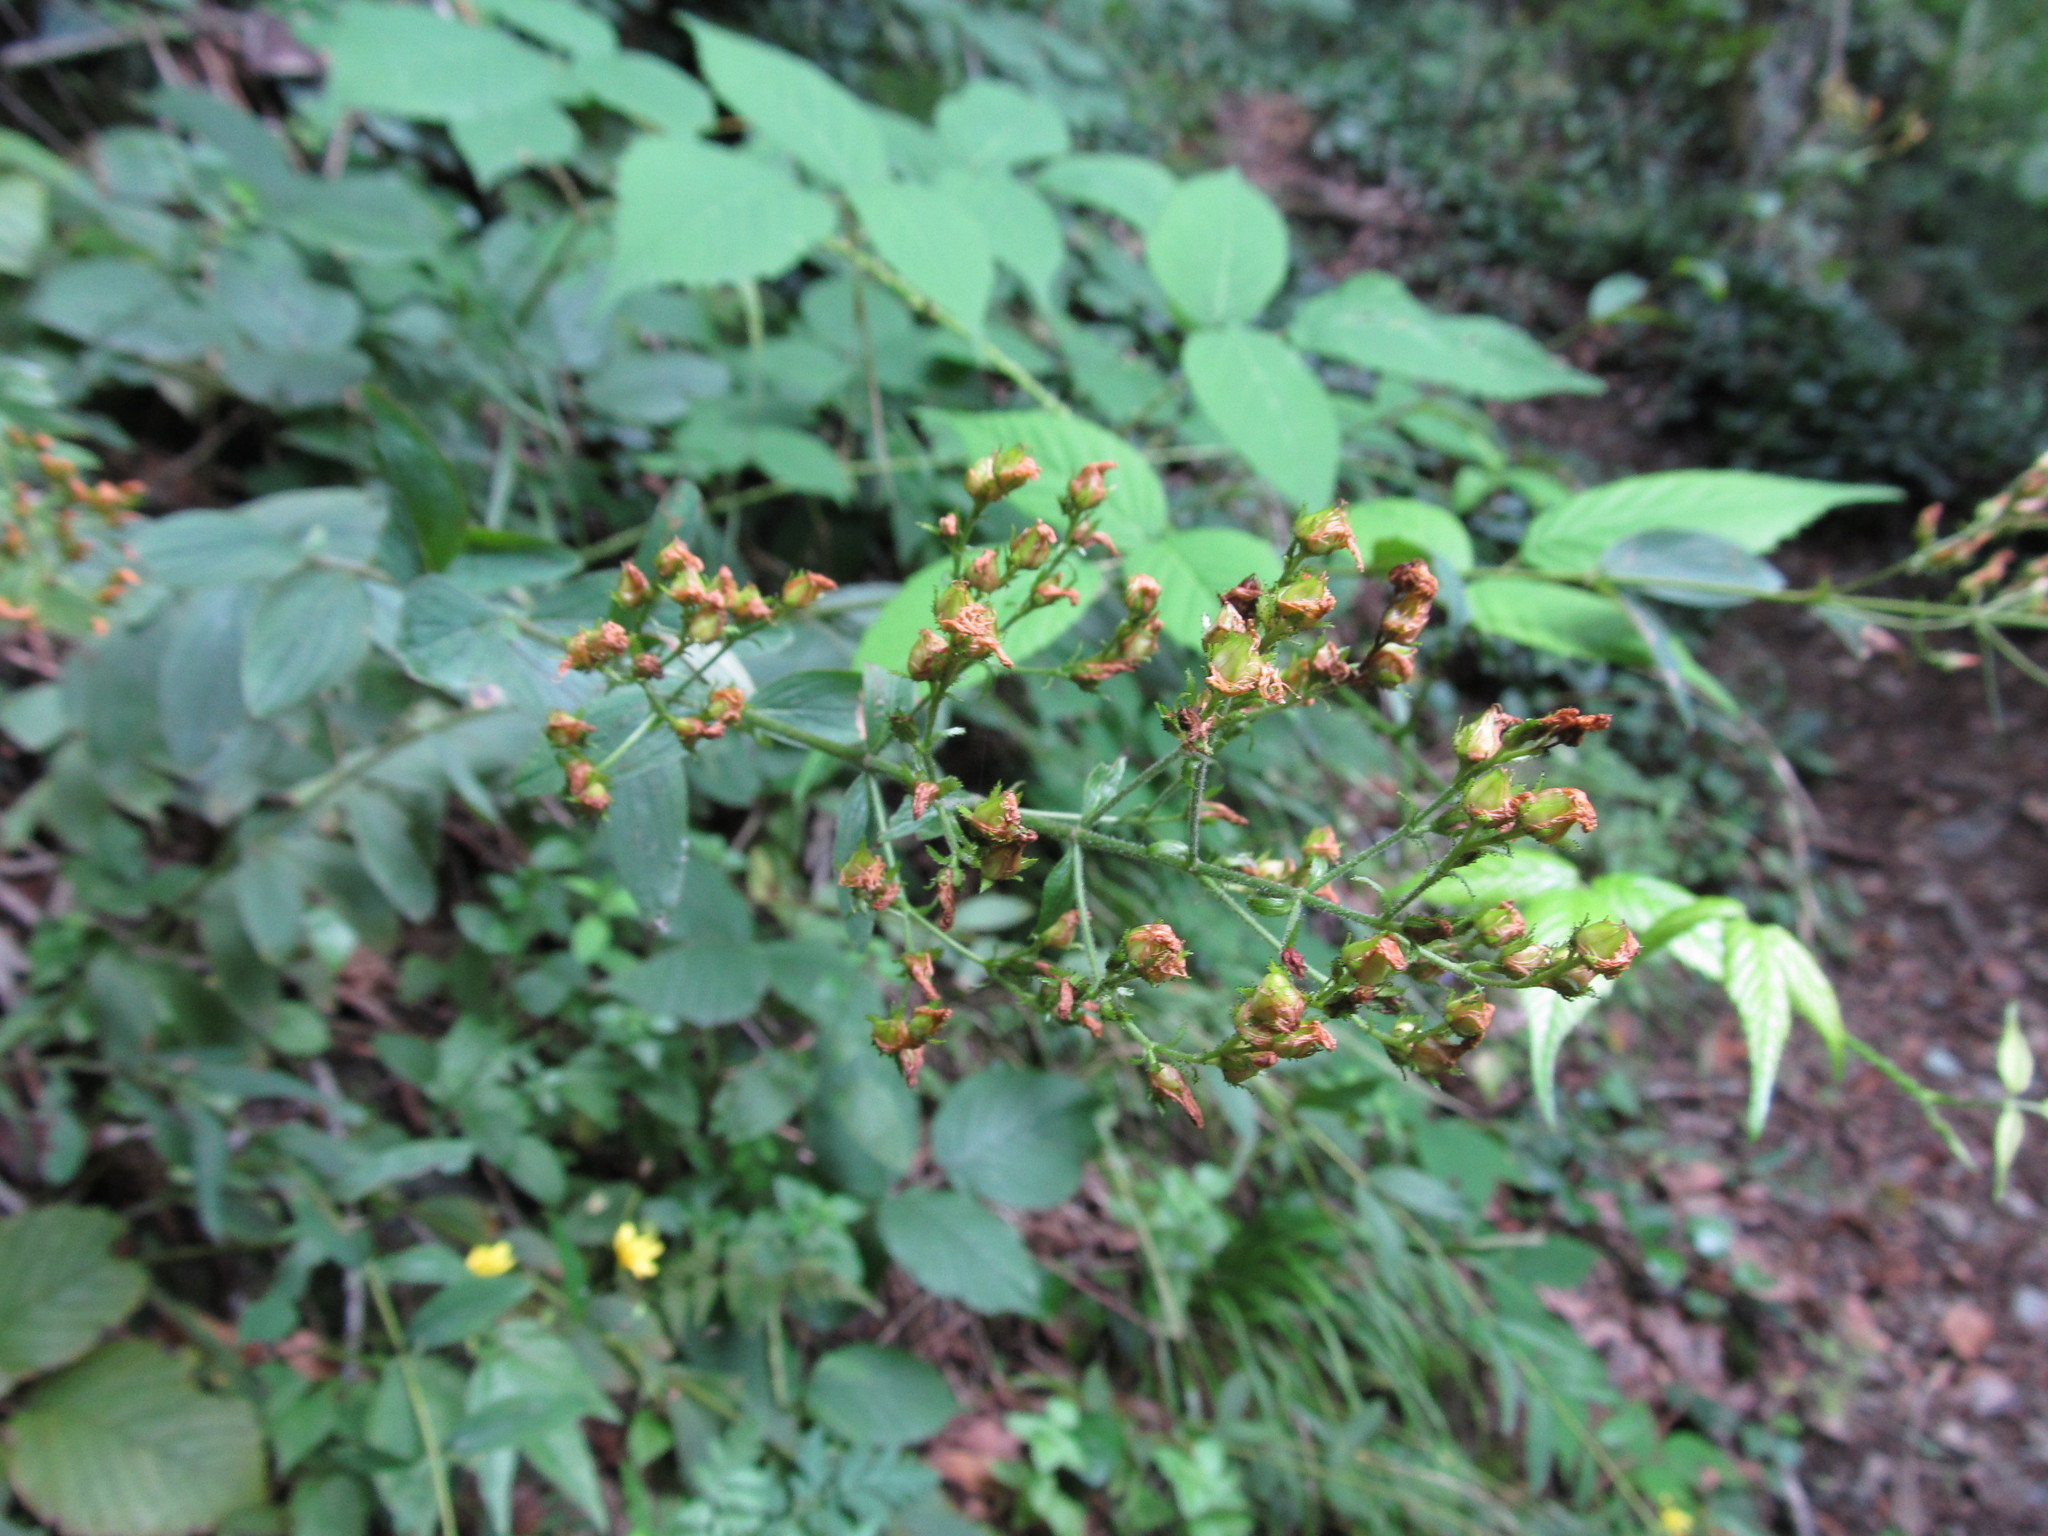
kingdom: Plantae
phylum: Tracheophyta
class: Magnoliopsida
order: Malpighiales
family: Hypericaceae
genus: Hypericum
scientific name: Hypericum hirsutum
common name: Hairy st. john's-wort
